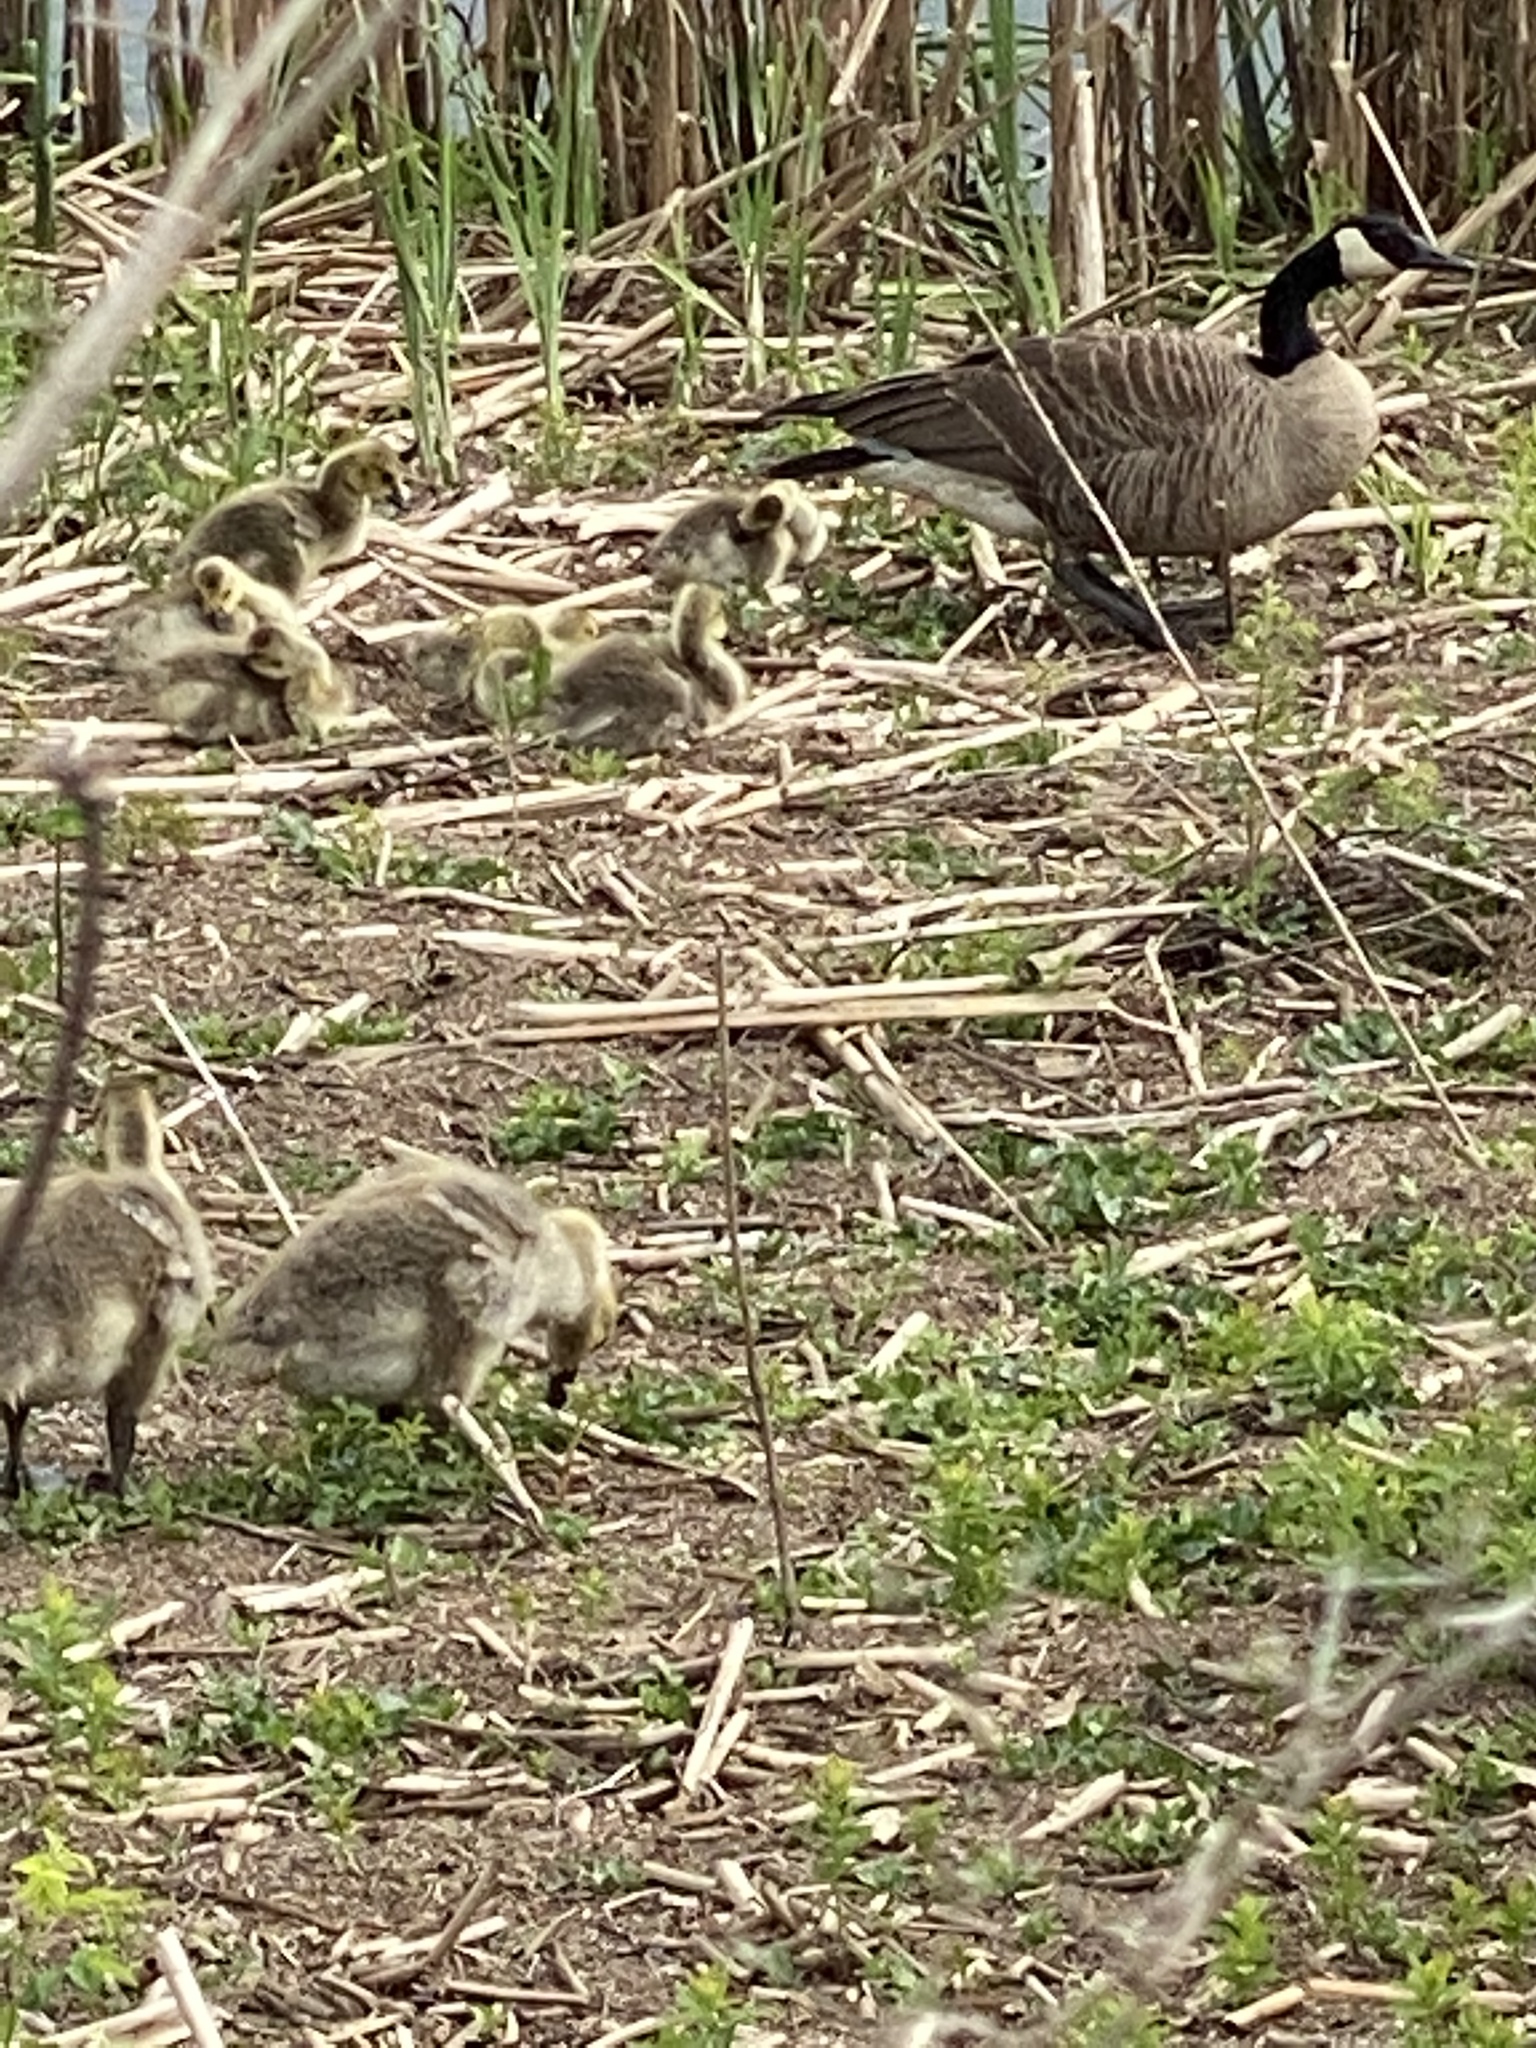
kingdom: Animalia
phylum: Chordata
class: Aves
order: Anseriformes
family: Anatidae
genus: Branta
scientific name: Branta canadensis
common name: Canada goose
